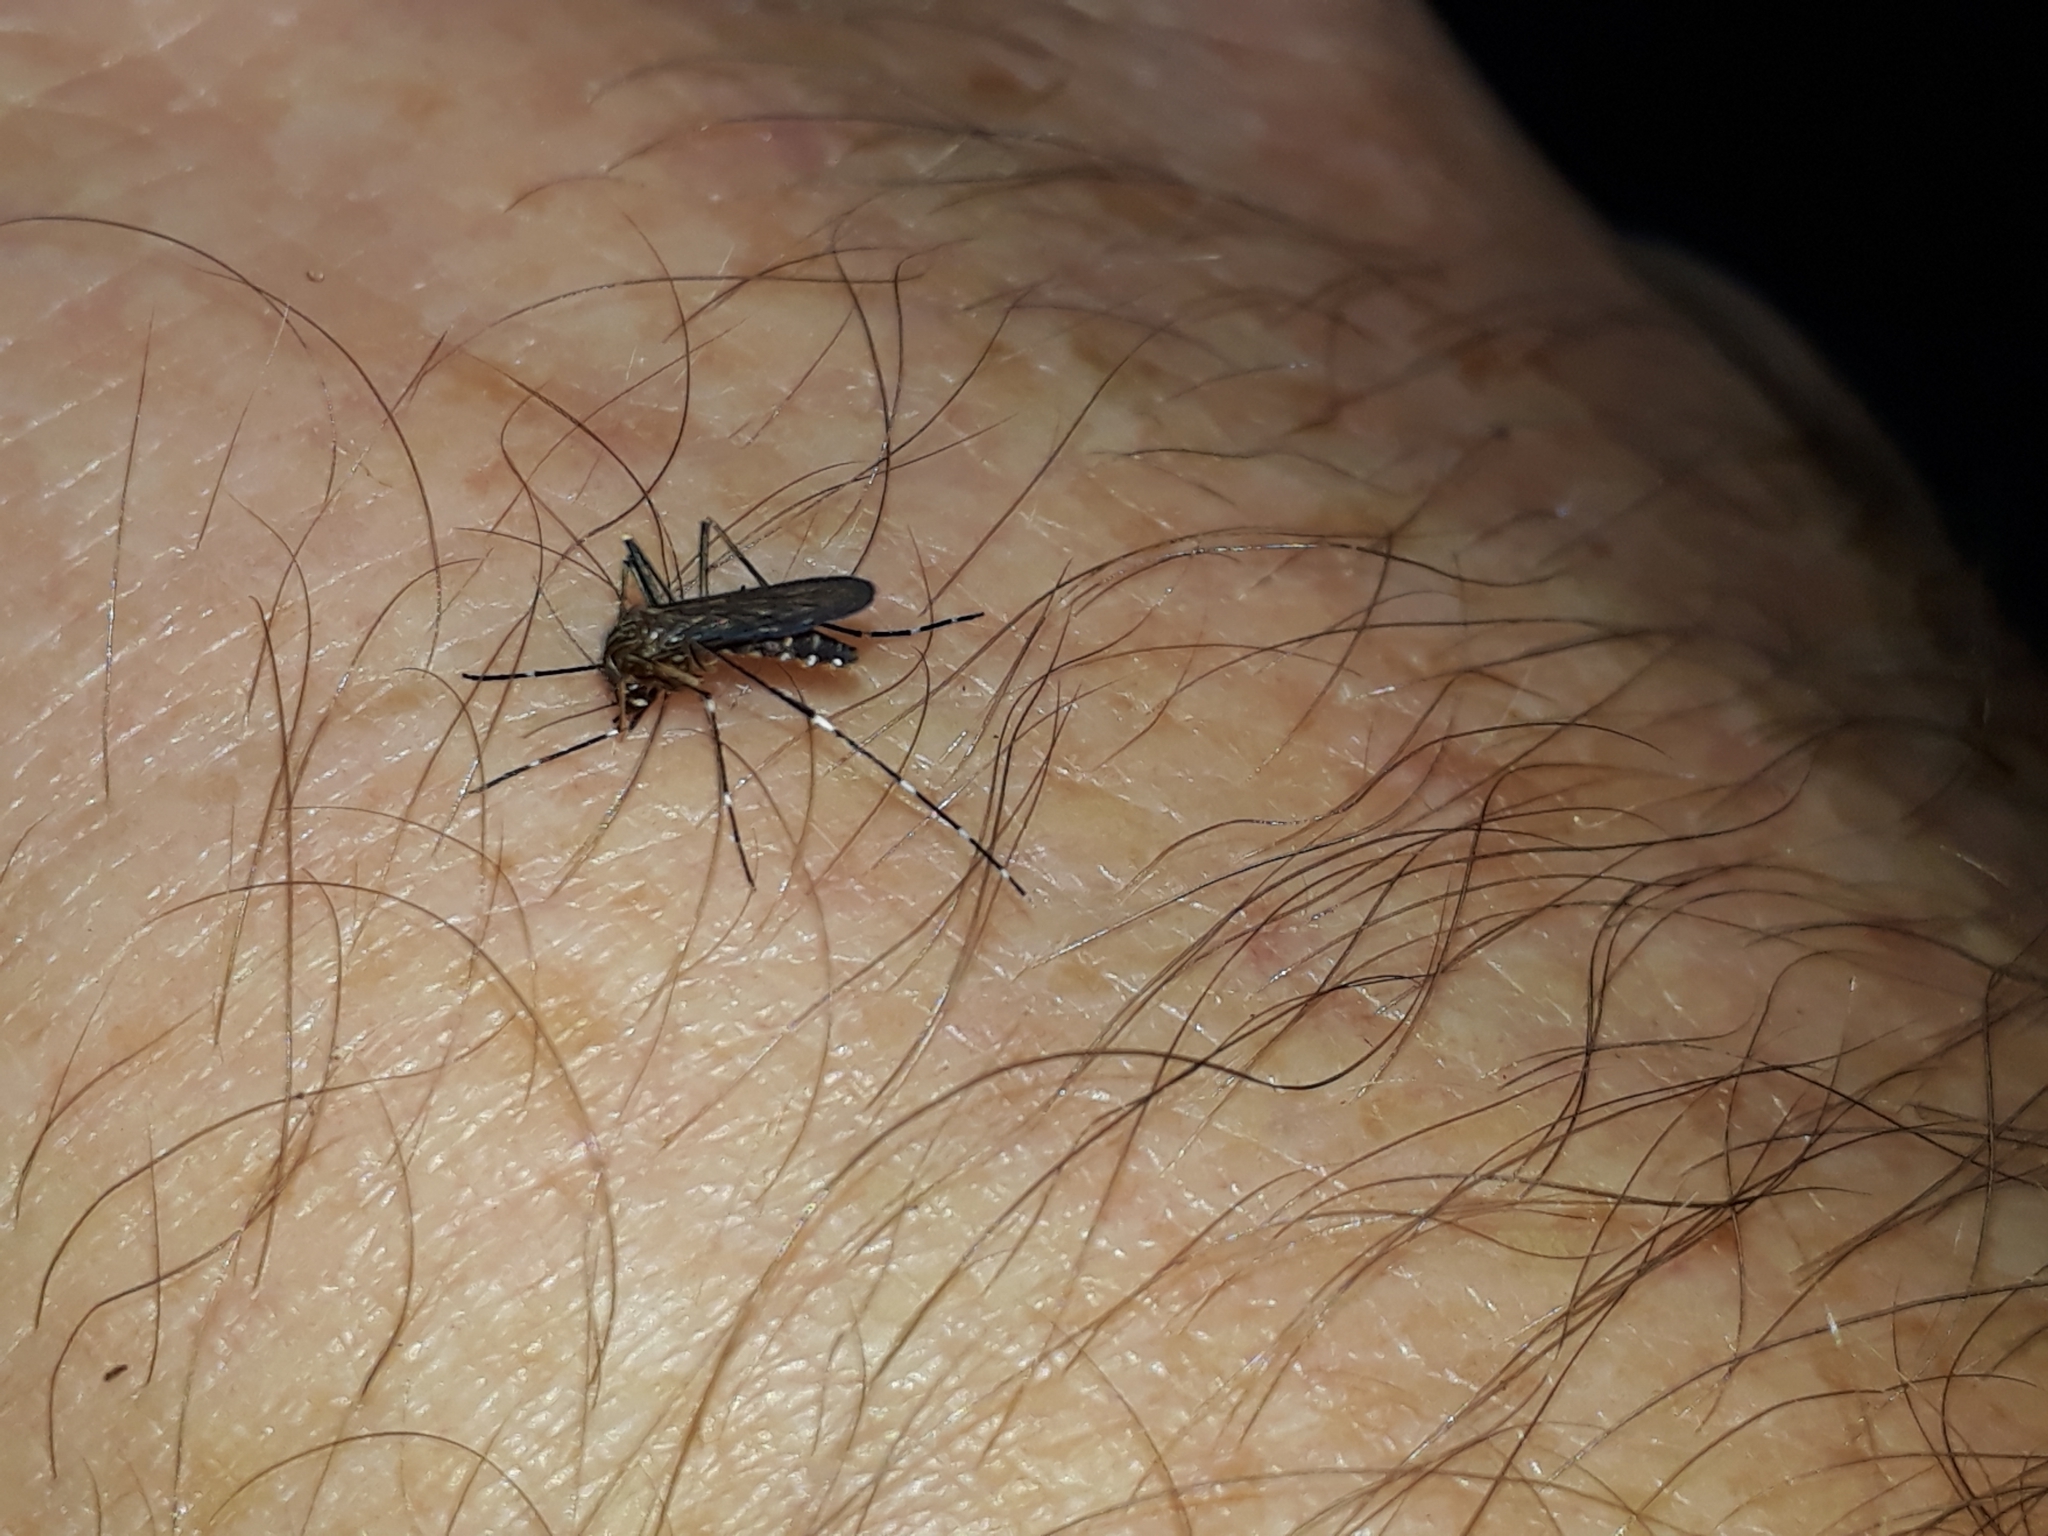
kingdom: Animalia
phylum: Arthropoda
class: Insecta
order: Diptera
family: Culicidae
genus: Aedes
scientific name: Aedes notoscriptus
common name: Australian backyard mosquito
